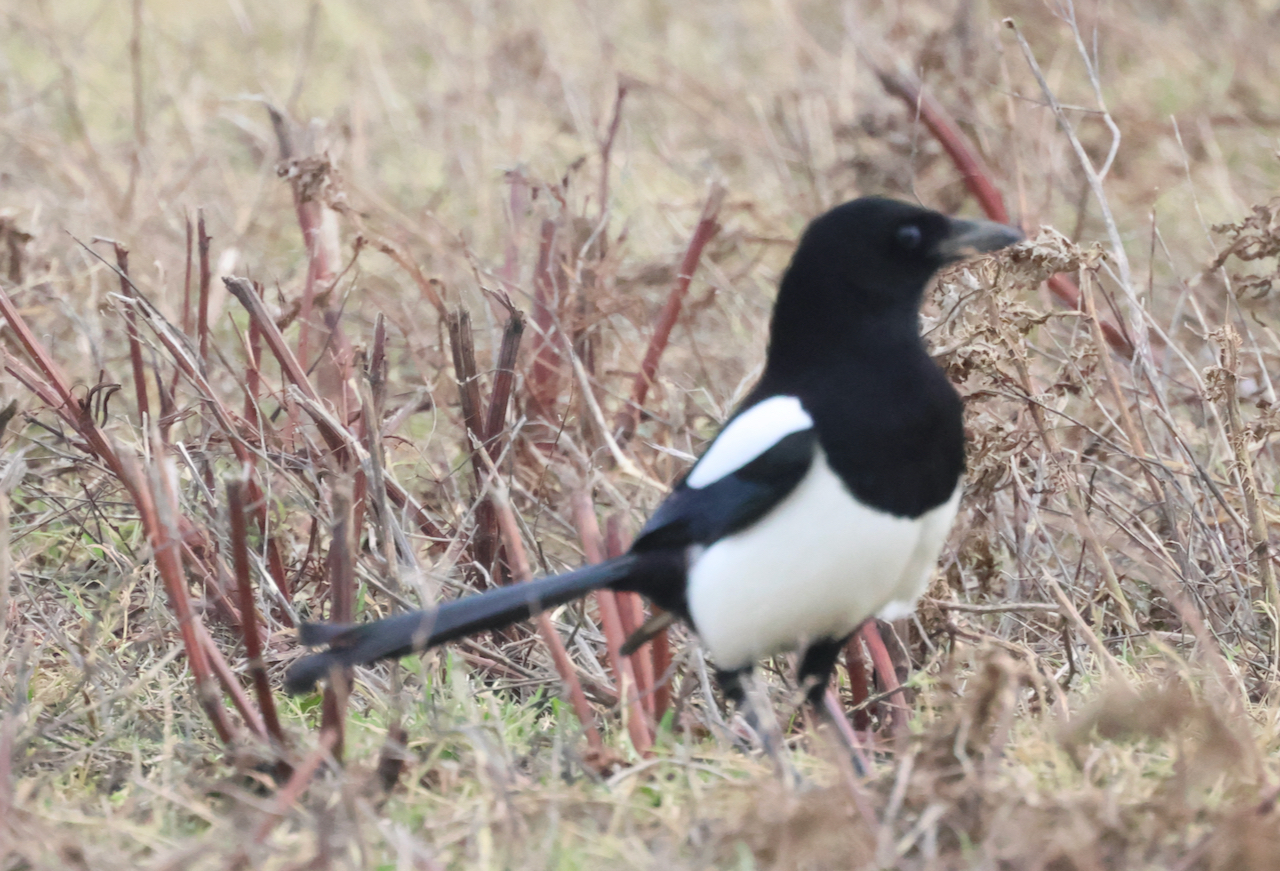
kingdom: Animalia
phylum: Chordata
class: Aves
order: Passeriformes
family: Corvidae
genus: Pica
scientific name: Pica pica
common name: Eurasian magpie
